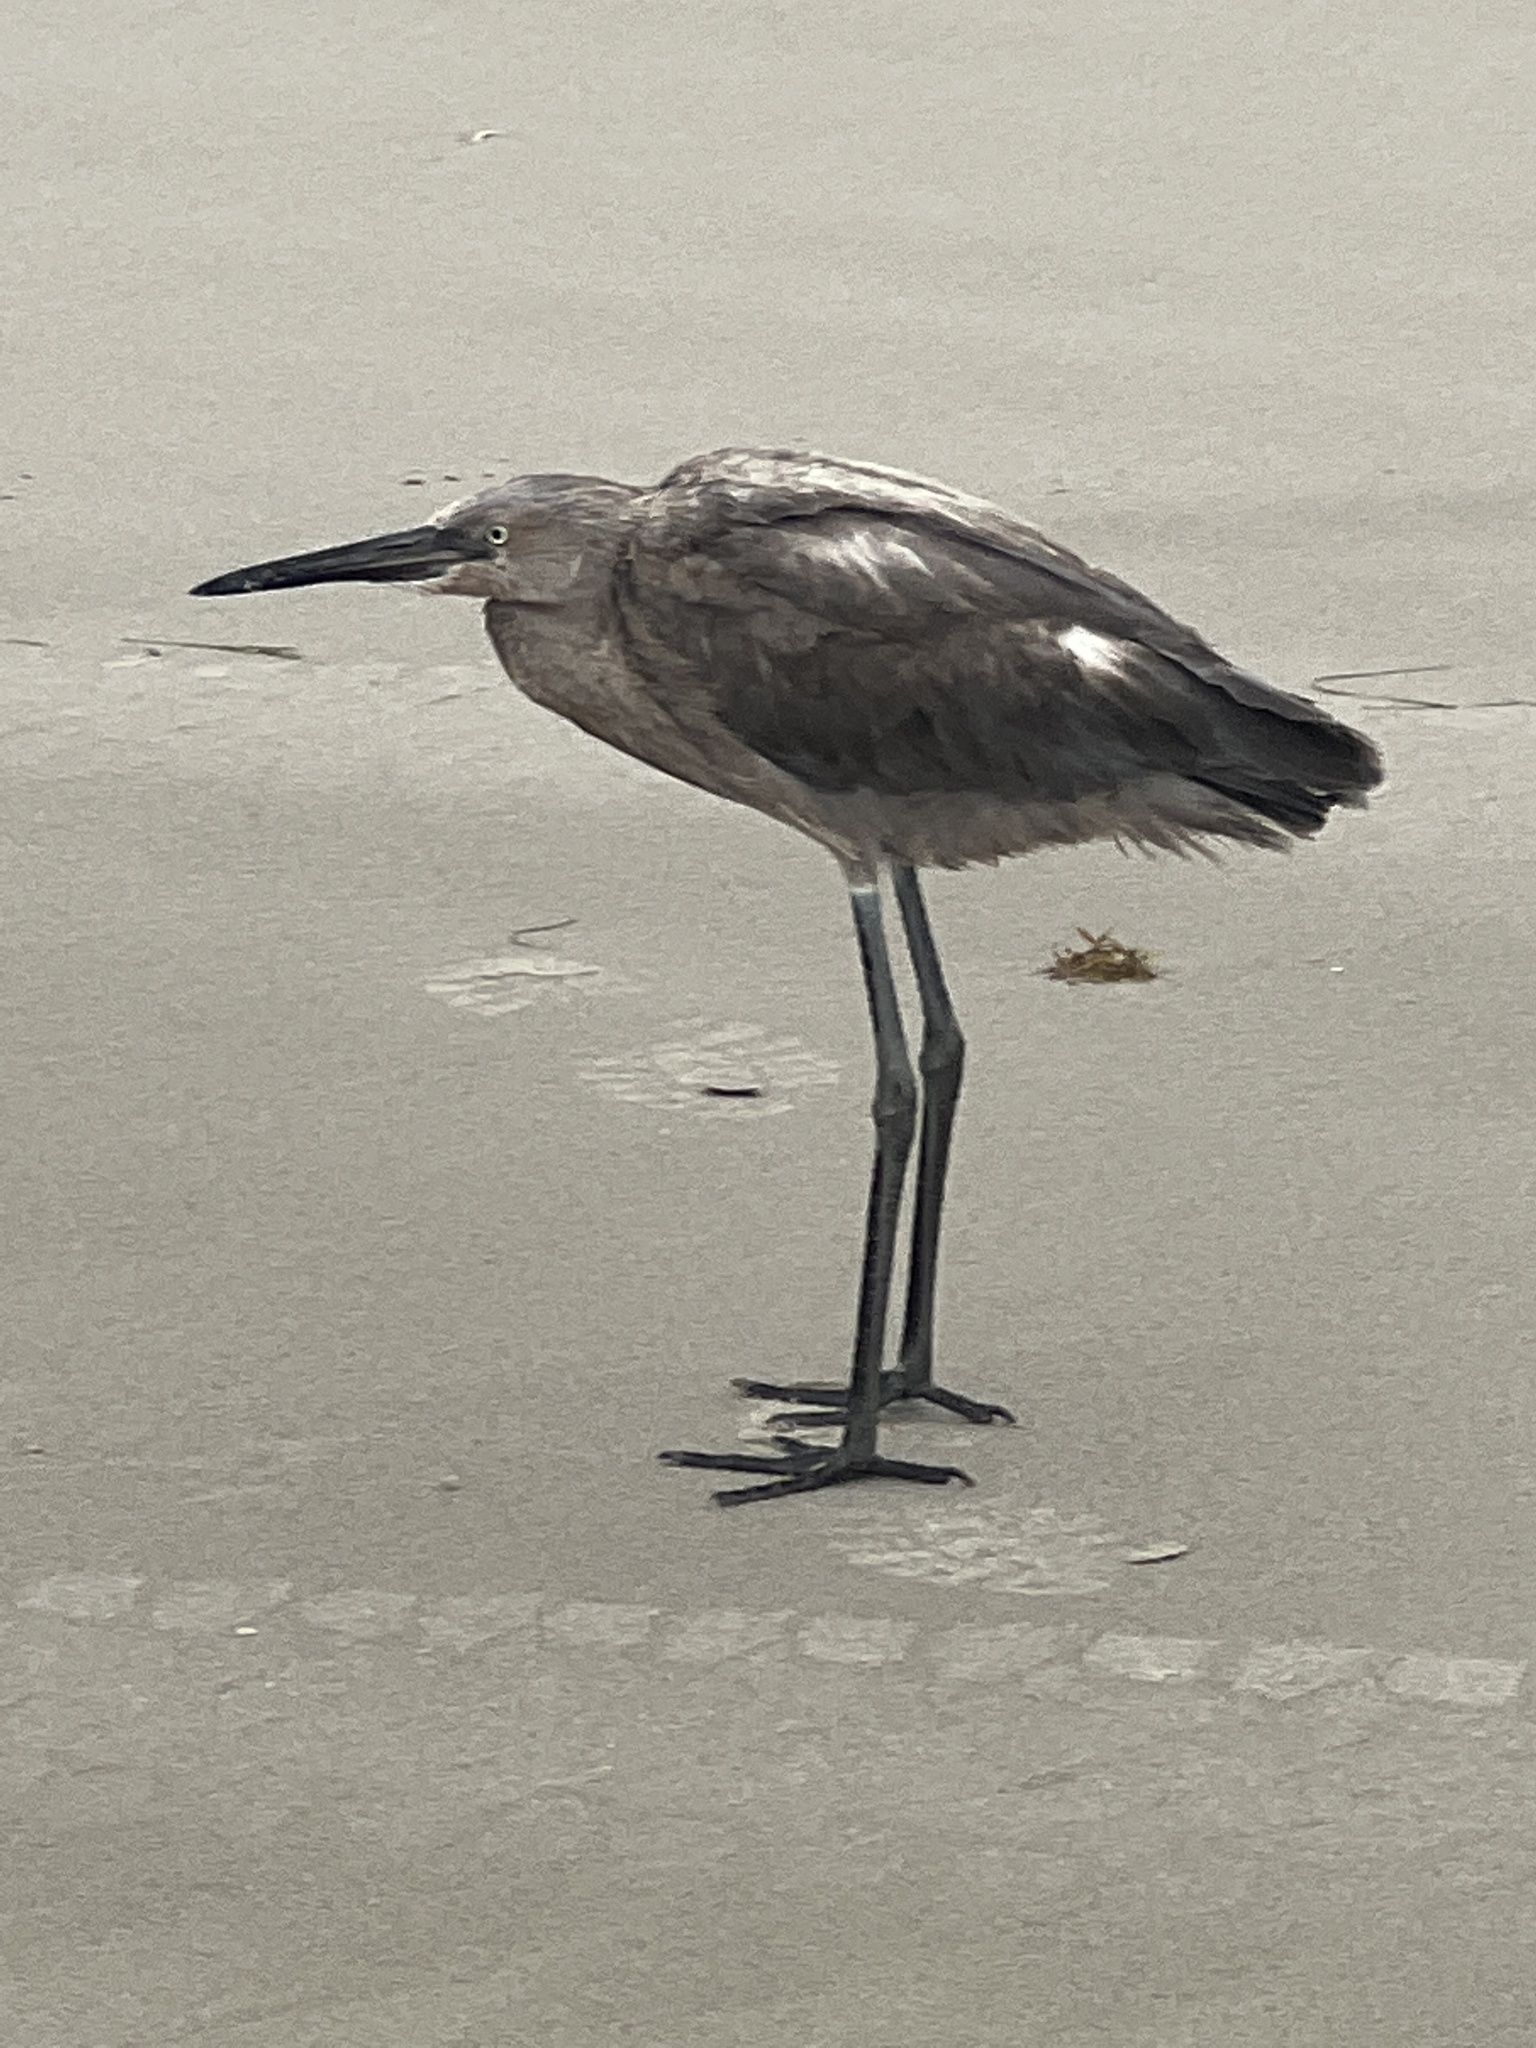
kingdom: Animalia
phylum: Chordata
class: Aves
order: Pelecaniformes
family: Ardeidae
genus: Egretta
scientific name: Egretta rufescens
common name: Reddish egret
